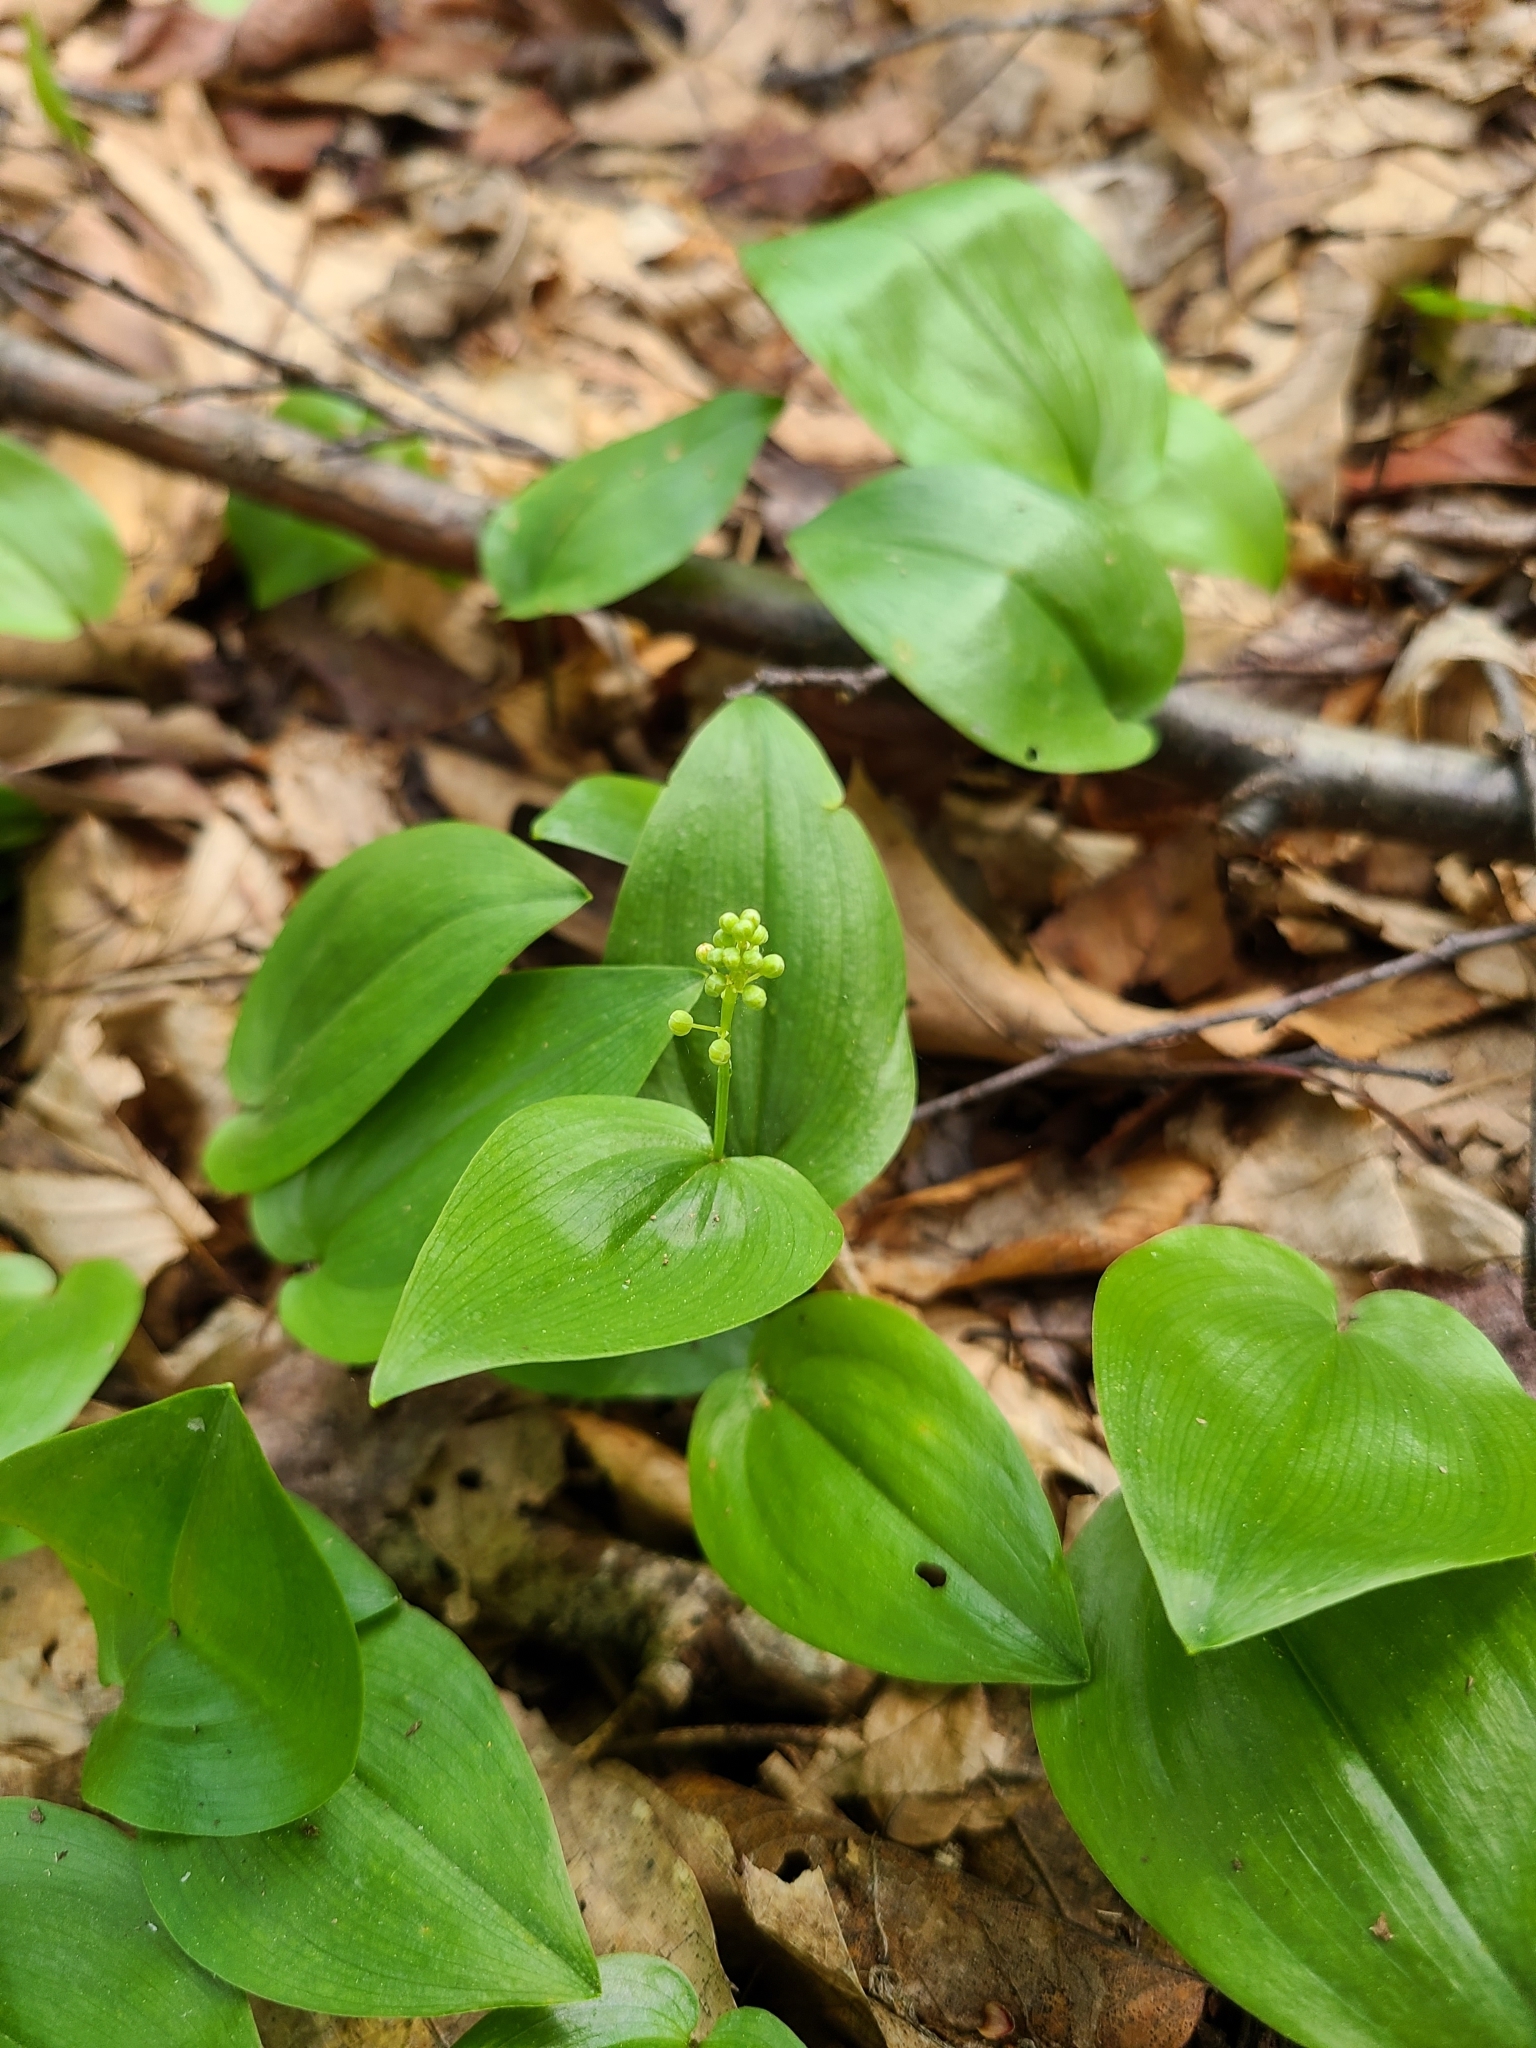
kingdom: Plantae
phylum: Tracheophyta
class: Liliopsida
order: Asparagales
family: Asparagaceae
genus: Maianthemum
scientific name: Maianthemum canadense
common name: False lily-of-the-valley
